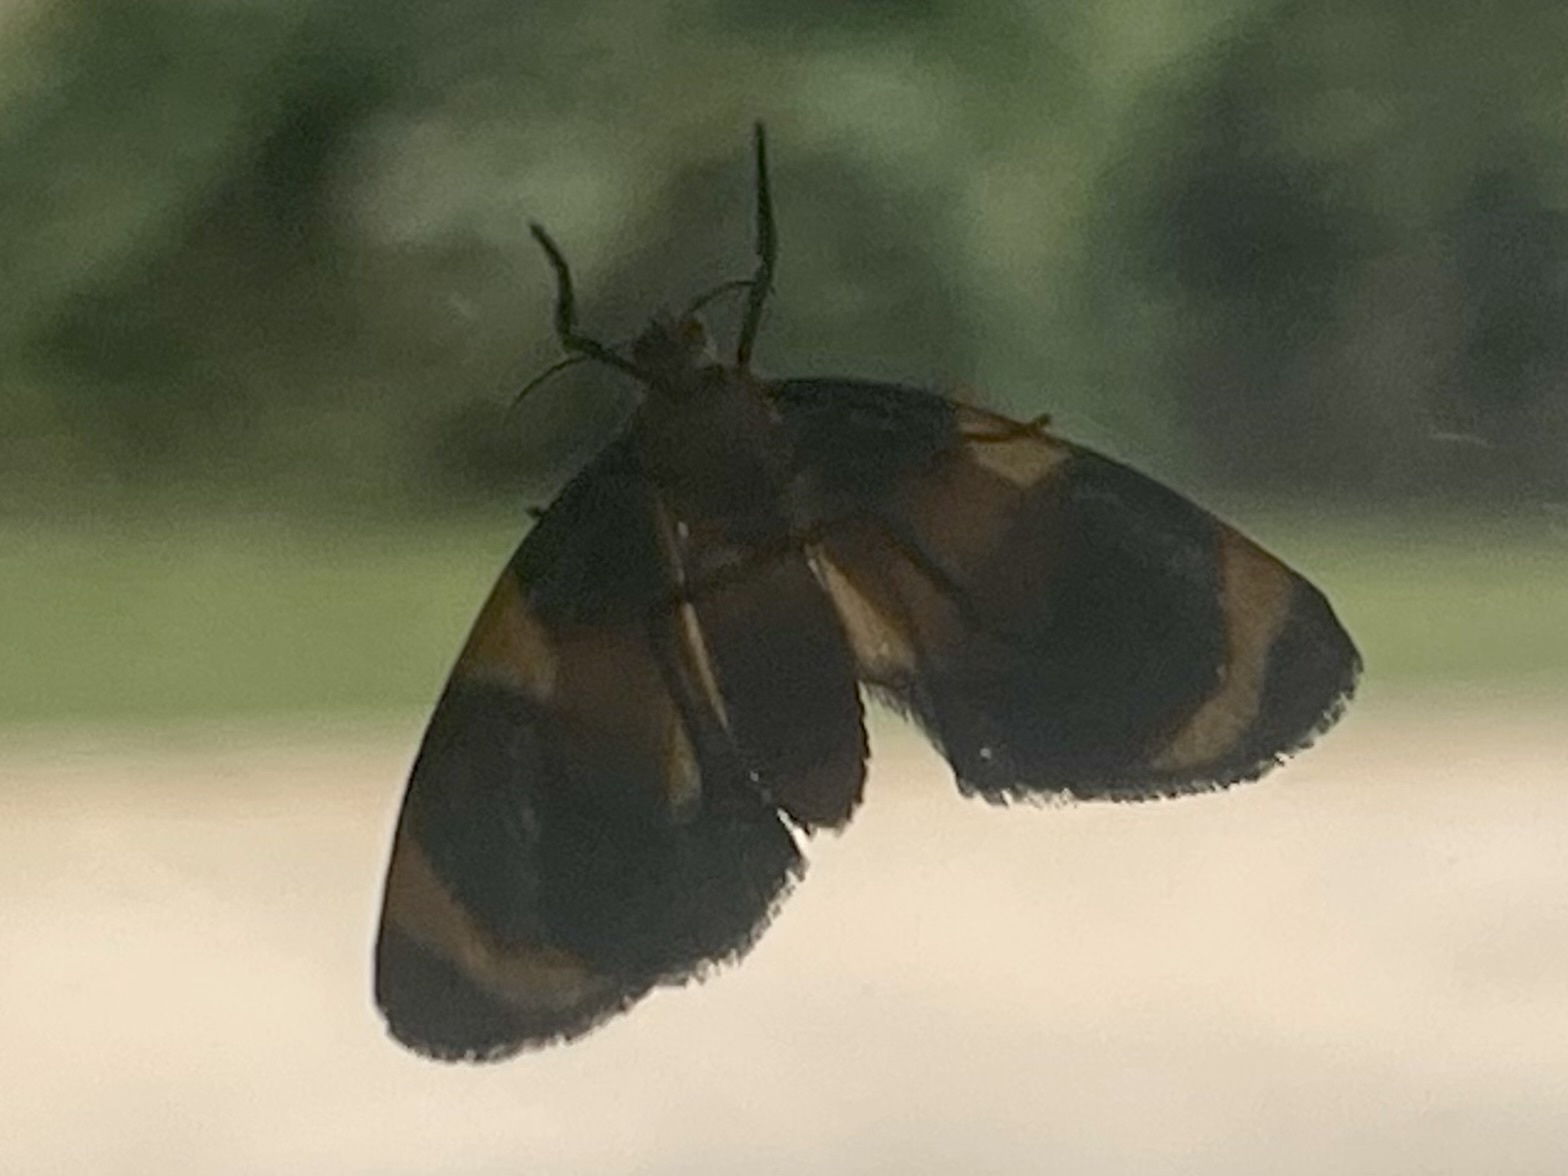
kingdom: Animalia
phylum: Arthropoda
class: Insecta
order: Lepidoptera
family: Erebidae
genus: Eudesmia
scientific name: Eudesmia menea
